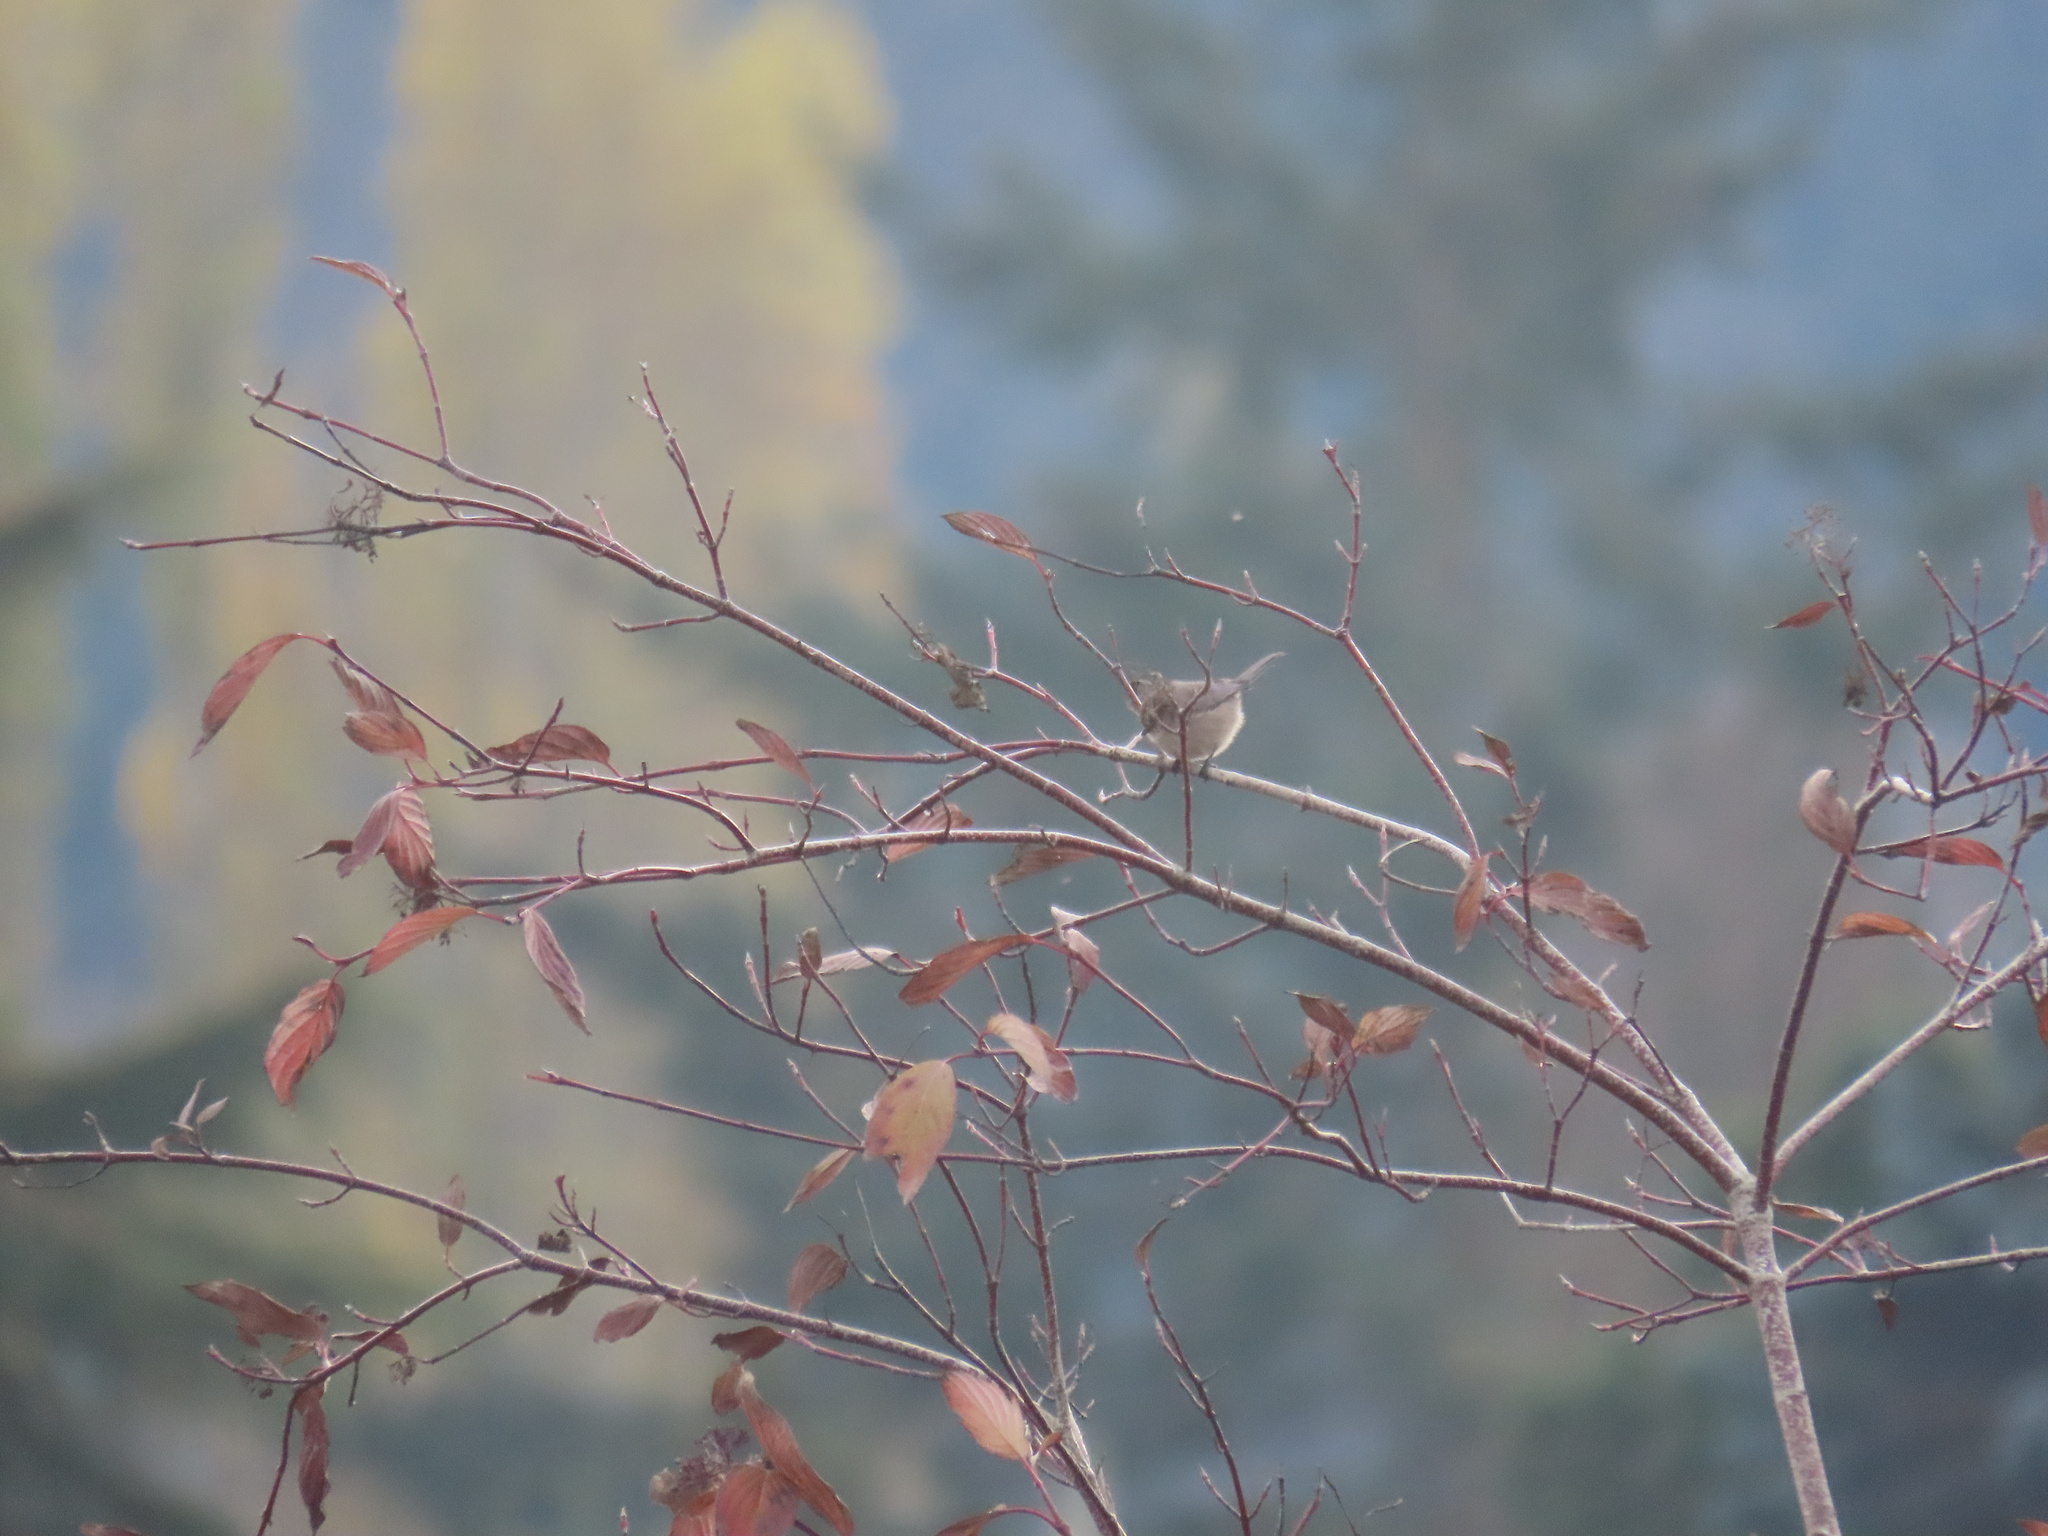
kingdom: Animalia
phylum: Chordata
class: Aves
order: Passeriformes
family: Aegithalidae
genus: Psaltriparus
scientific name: Psaltriparus minimus
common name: American bushtit
